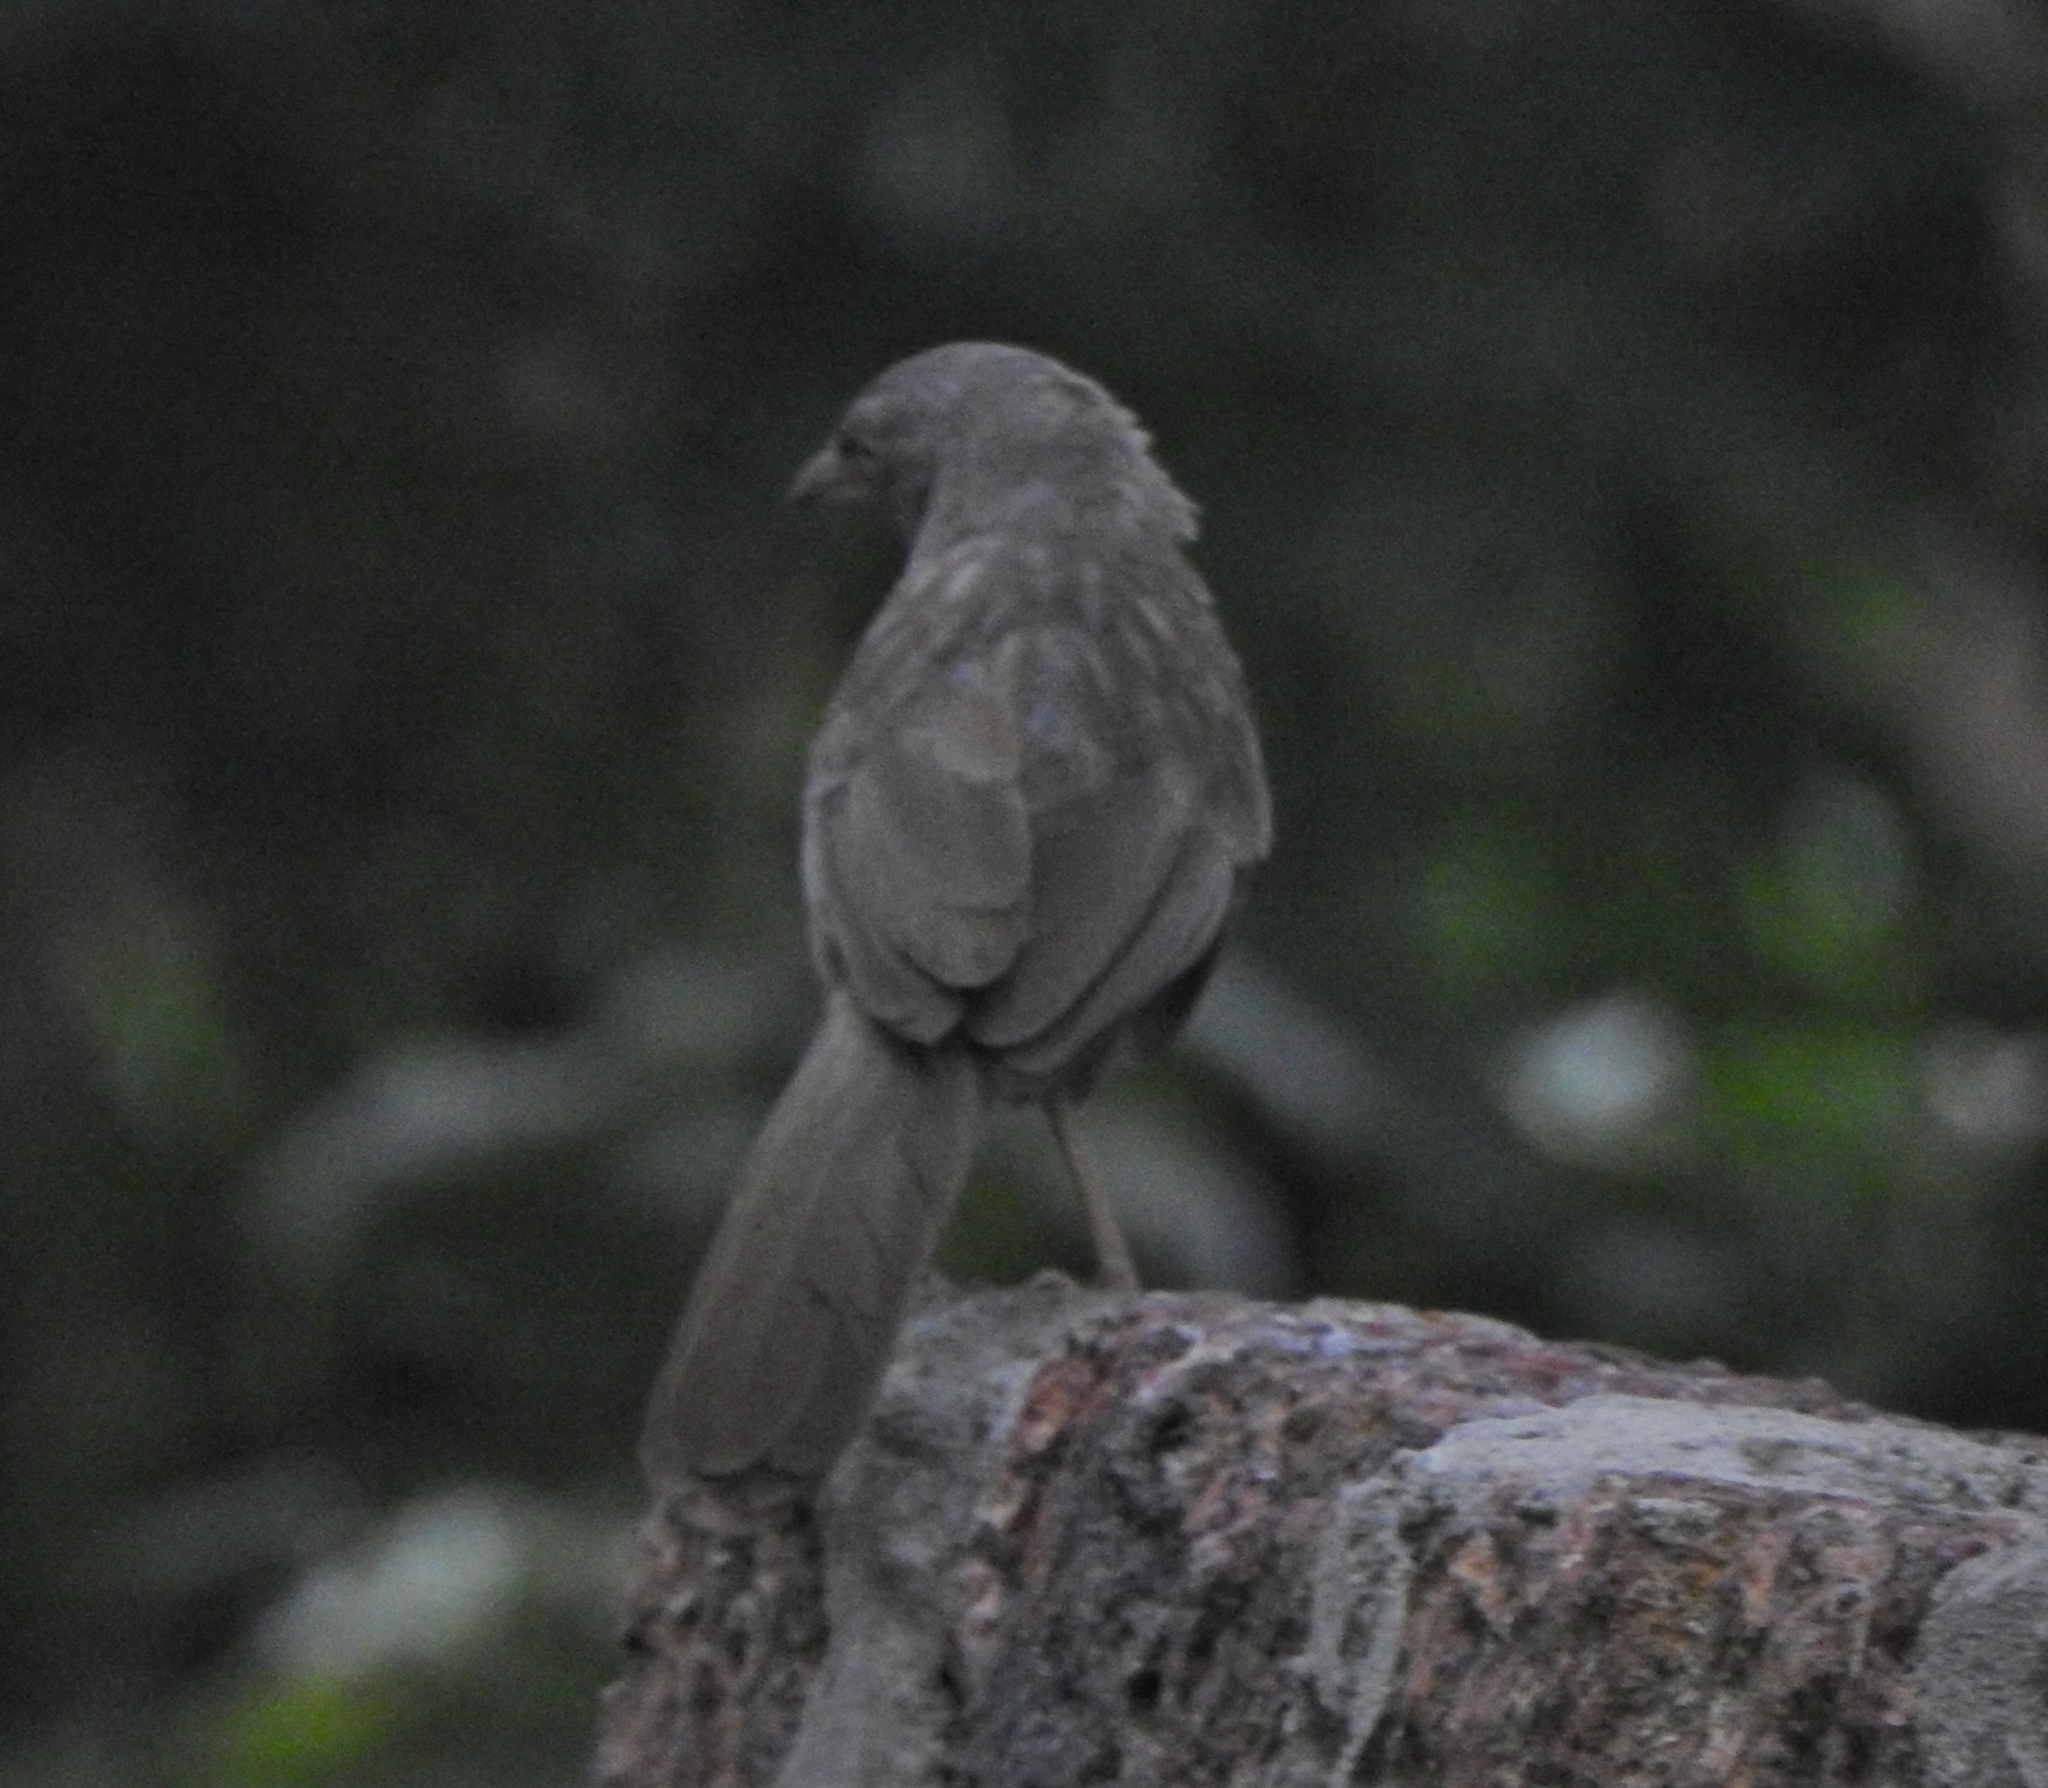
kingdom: Animalia
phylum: Chordata
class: Aves
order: Passeriformes
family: Leiothrichidae
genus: Turdoides
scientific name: Turdoides striata
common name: Jungle babbler
